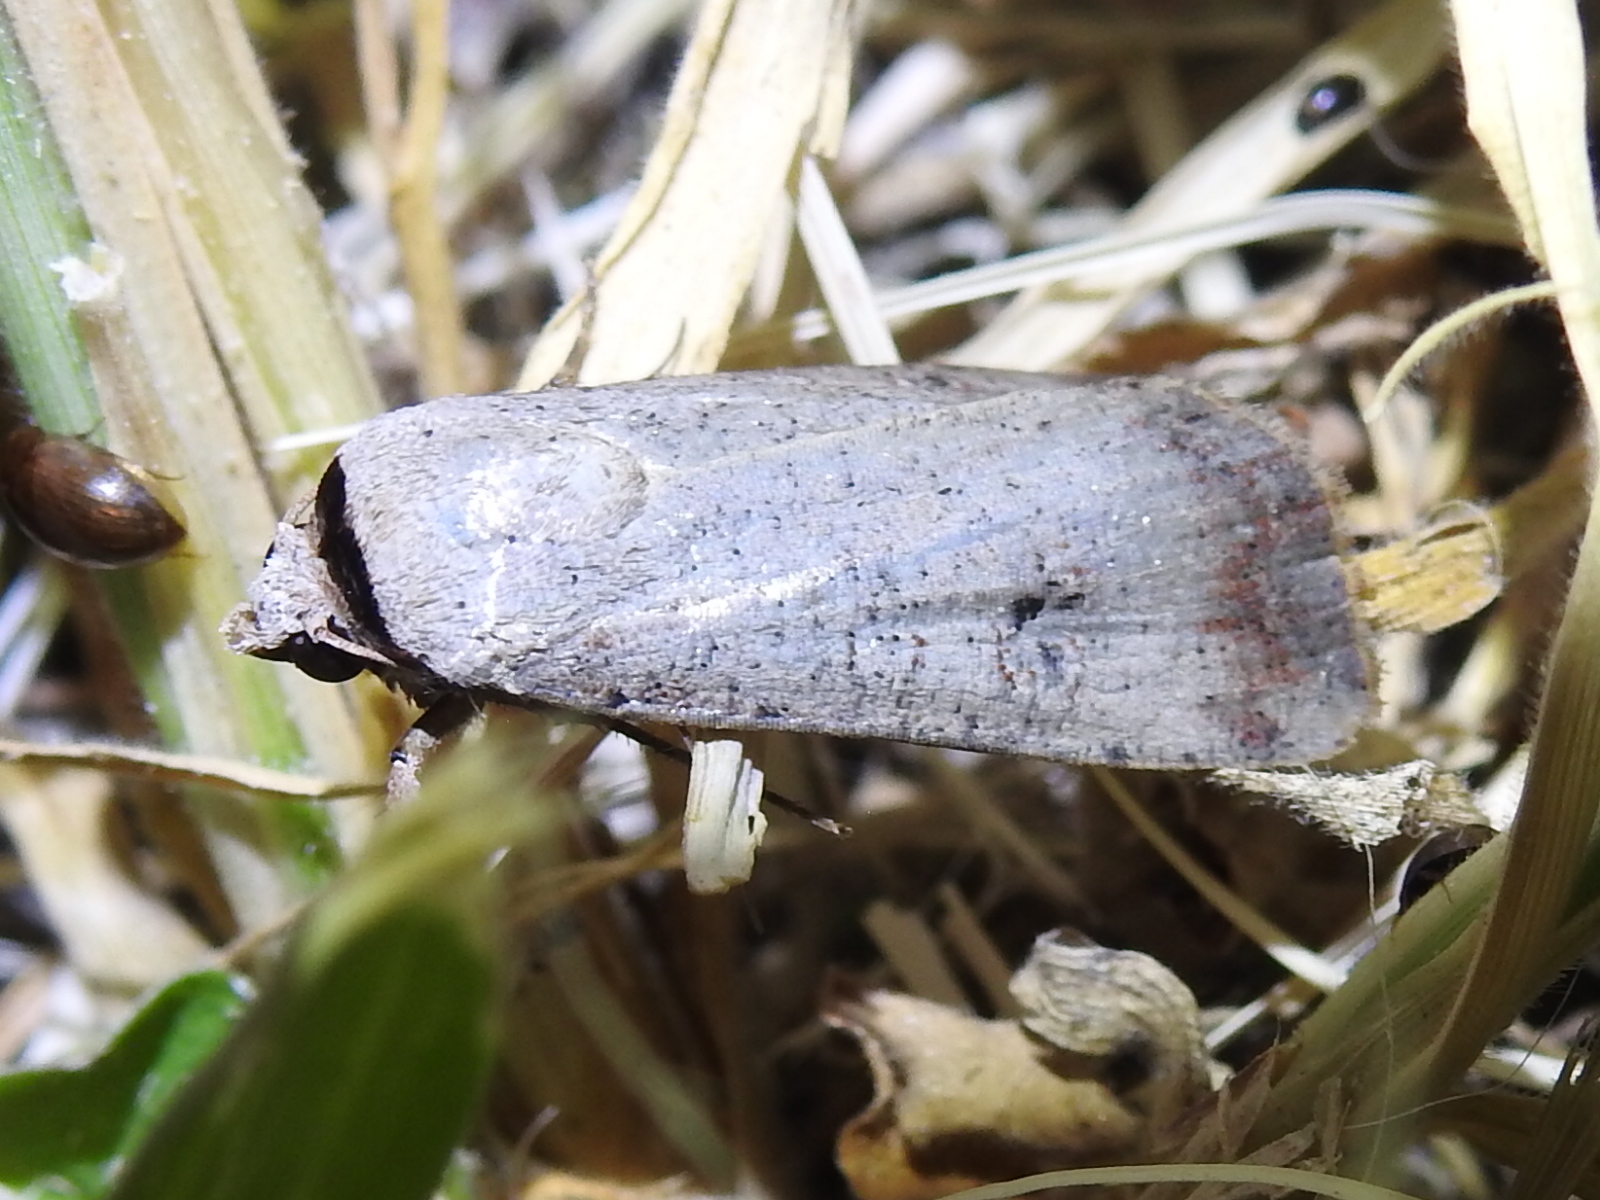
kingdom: Animalia
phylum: Arthropoda
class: Insecta
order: Lepidoptera
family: Noctuidae
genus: Anicla
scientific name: Anicla infecta
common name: Green cutworm
